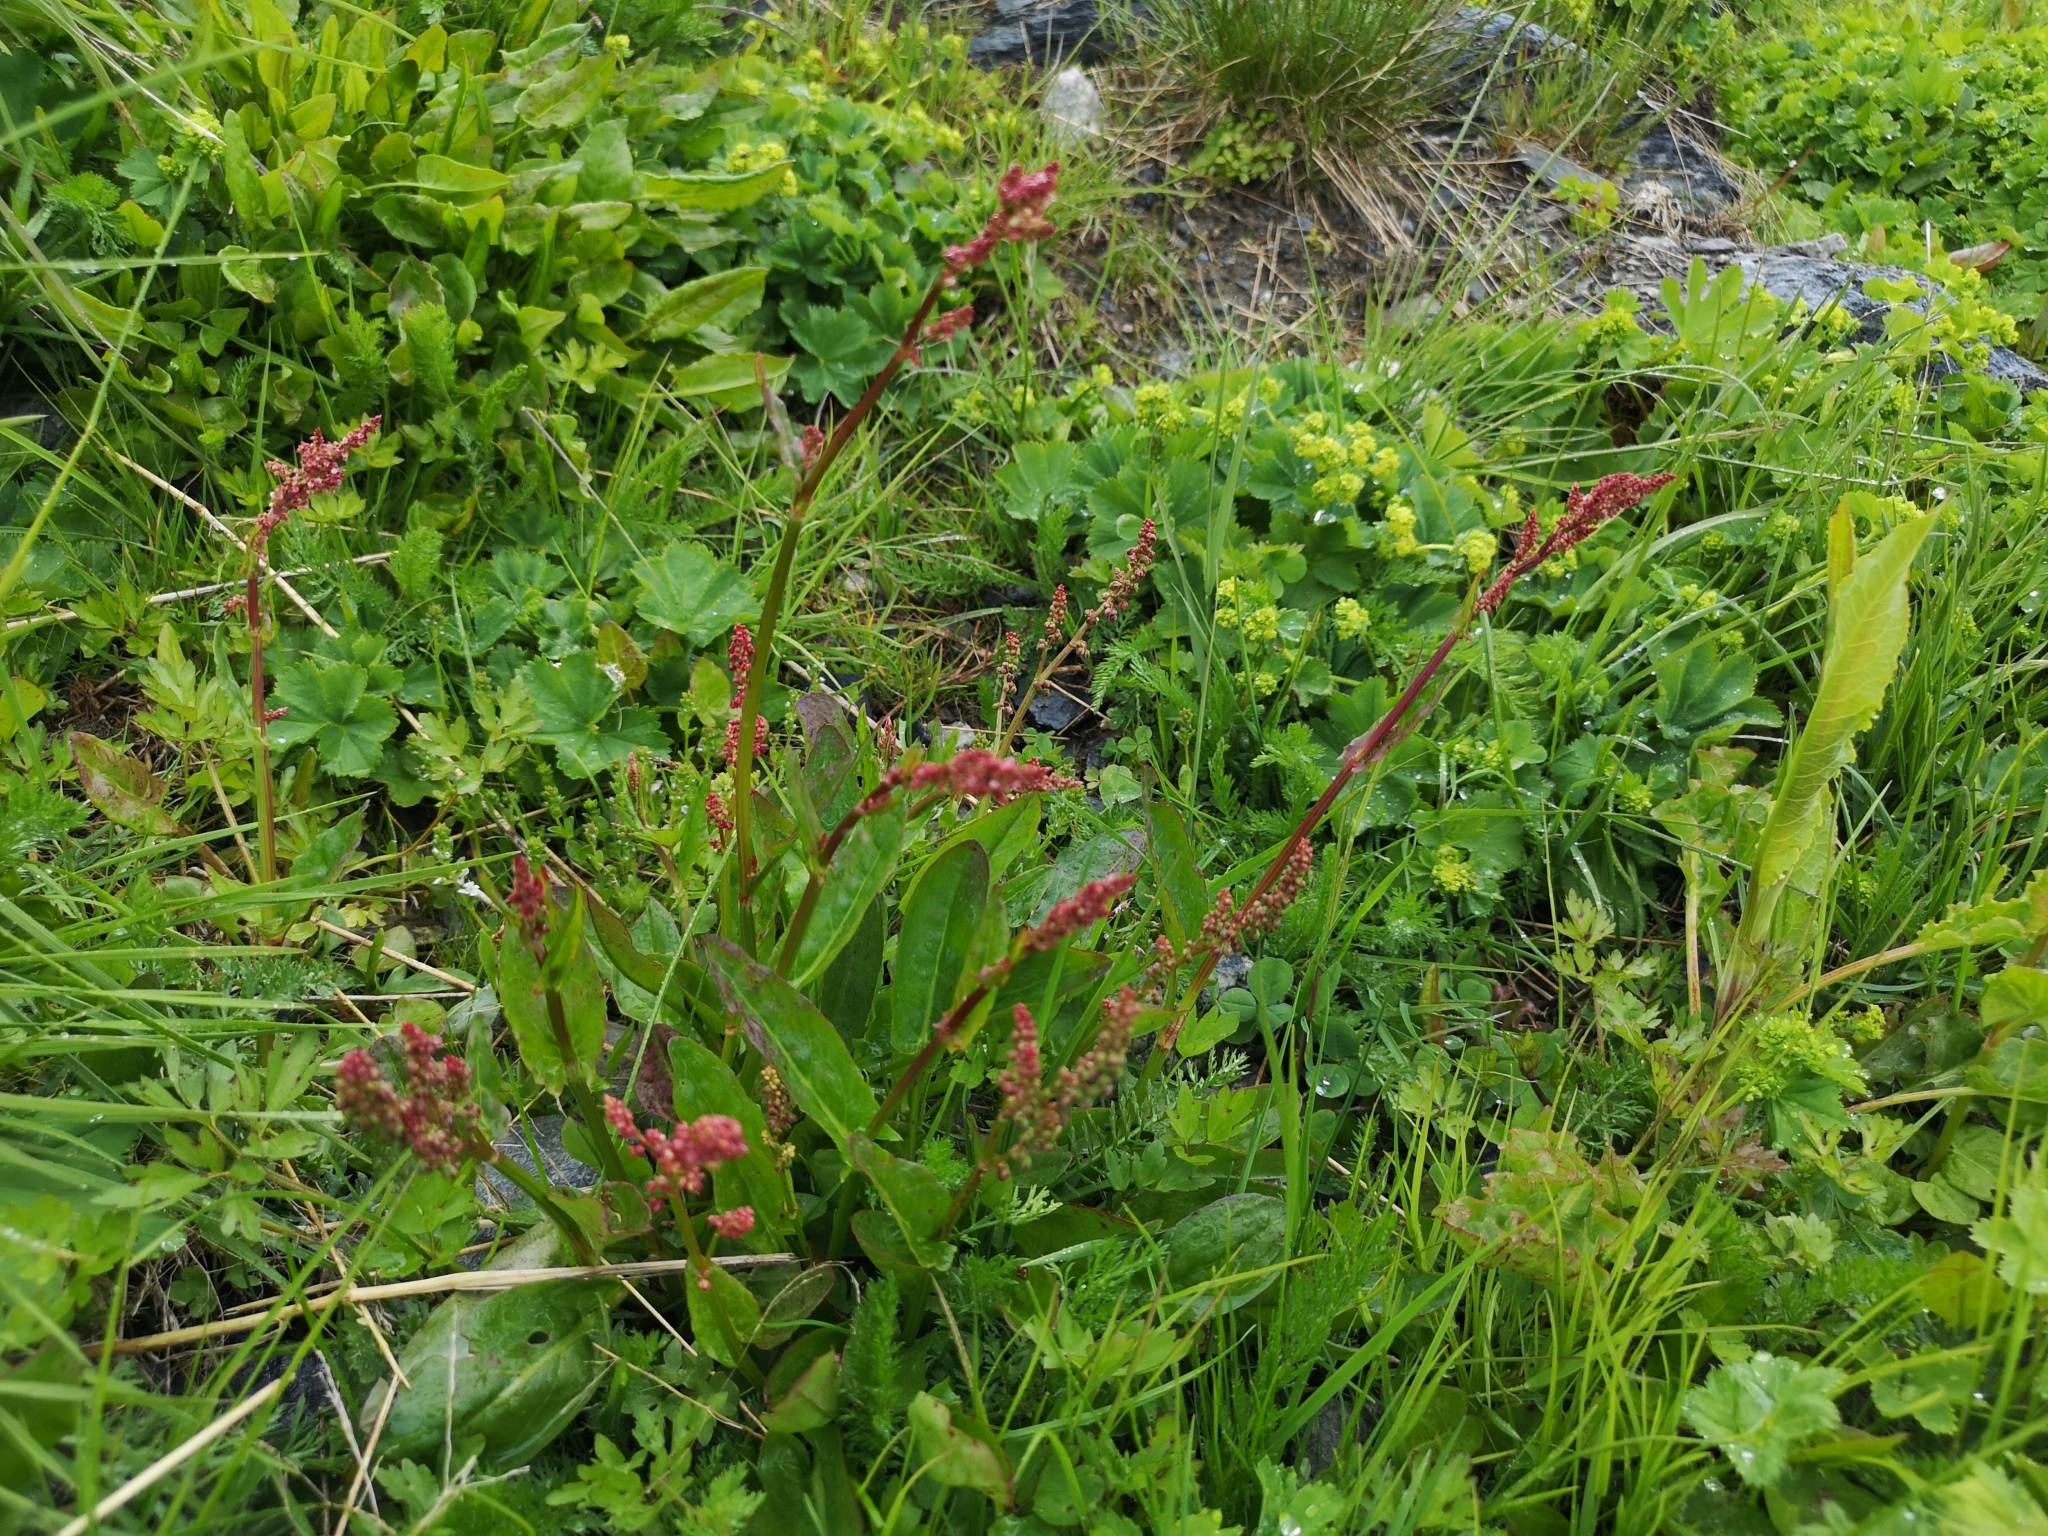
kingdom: Plantae
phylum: Tracheophyta
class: Magnoliopsida
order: Caryophyllales
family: Polygonaceae
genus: Rumex
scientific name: Rumex acetosa
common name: Garden sorrel
